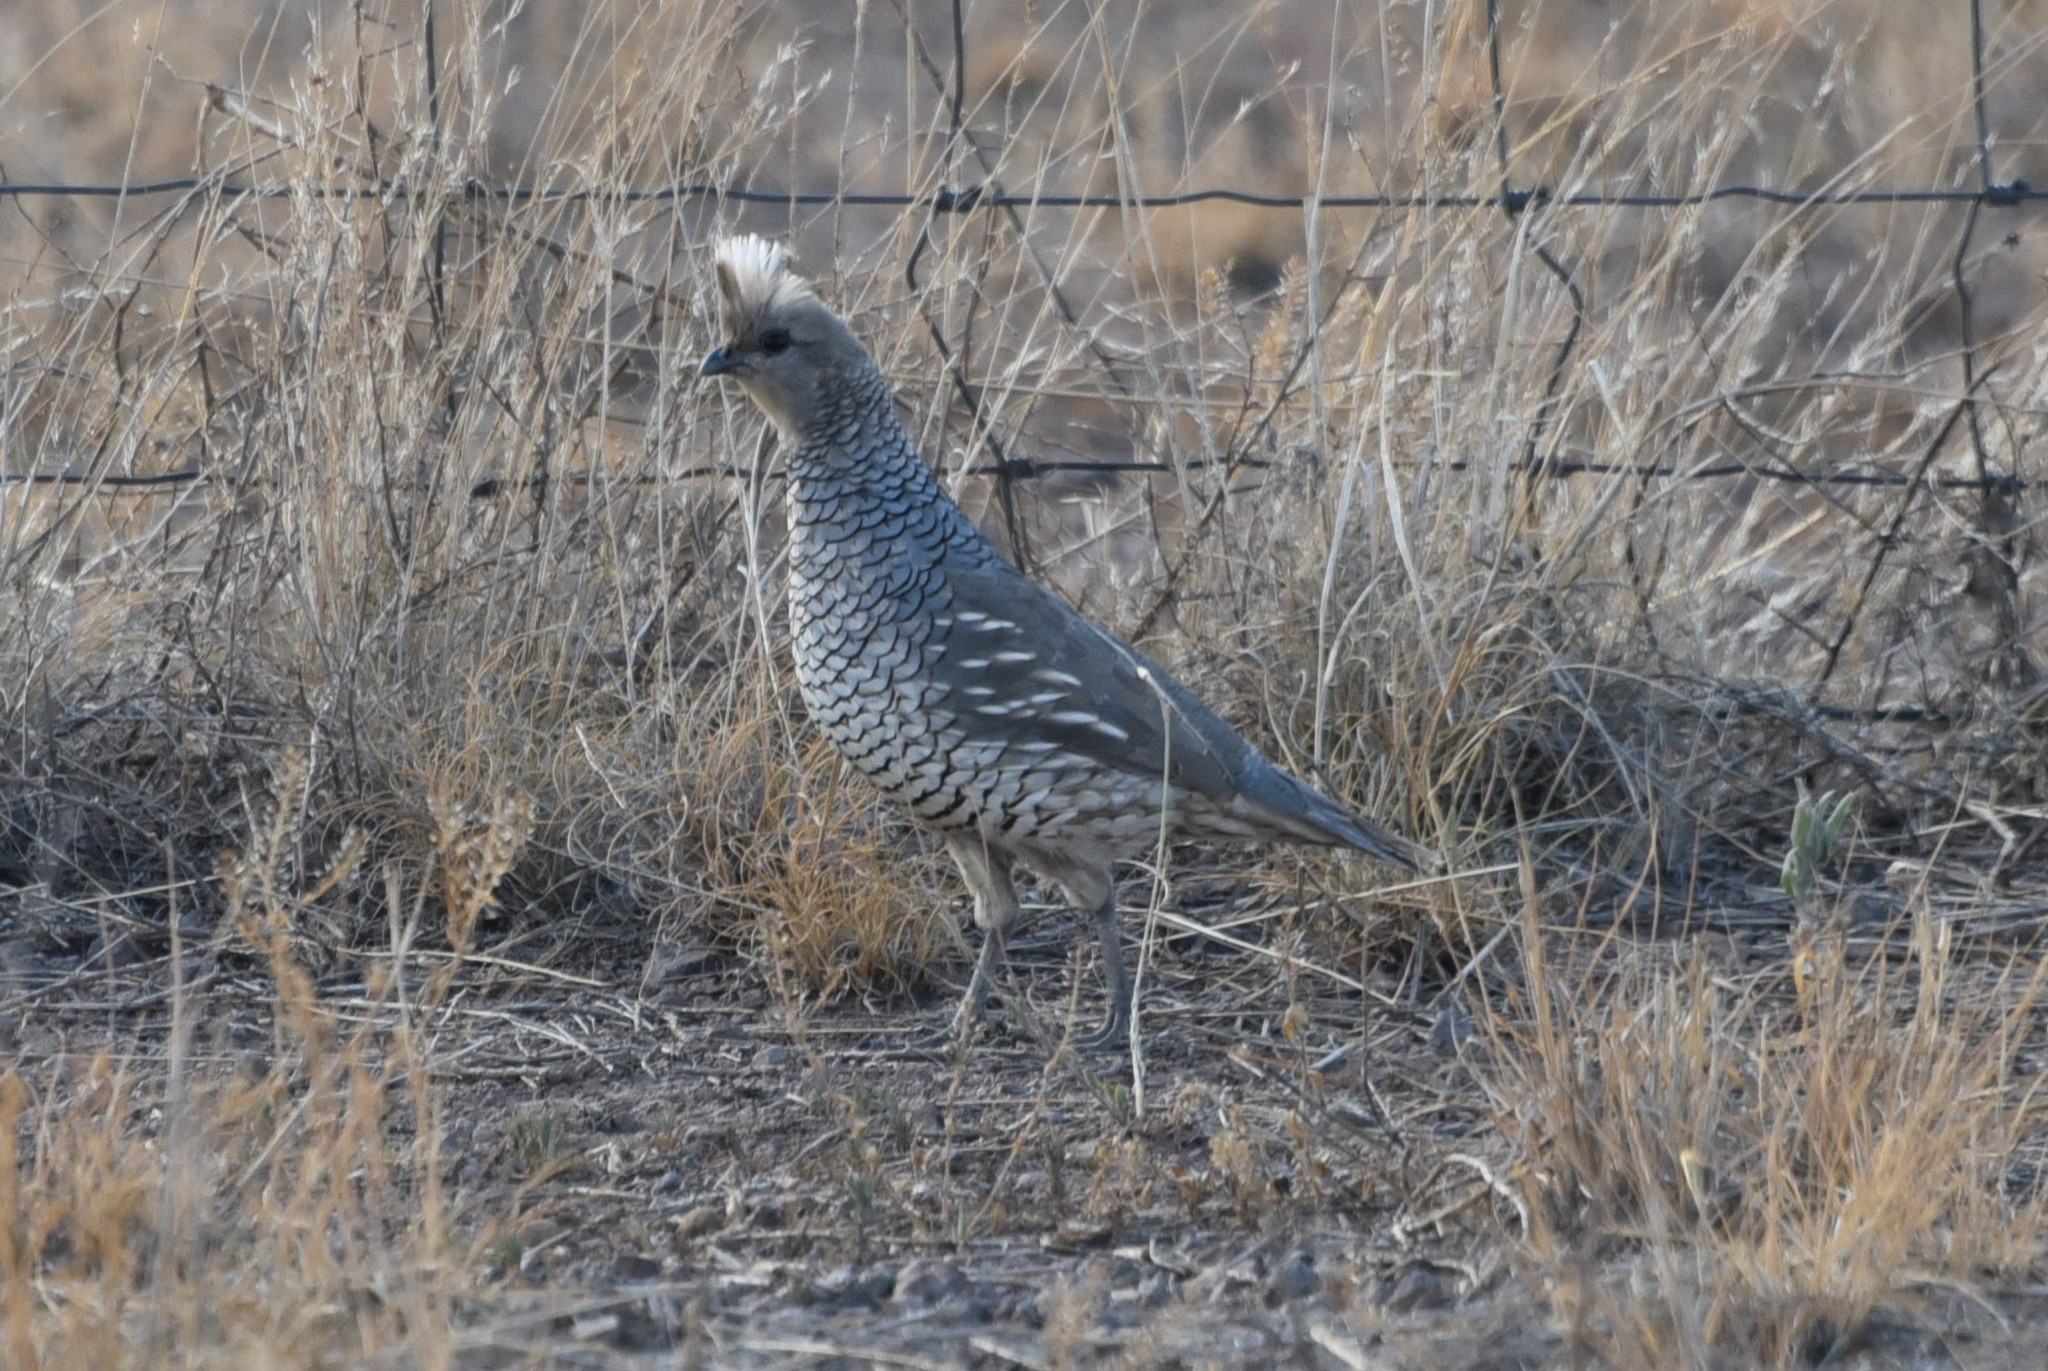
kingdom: Animalia
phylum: Chordata
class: Aves
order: Galliformes
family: Odontophoridae
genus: Callipepla
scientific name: Callipepla squamata
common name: Scaled quail
